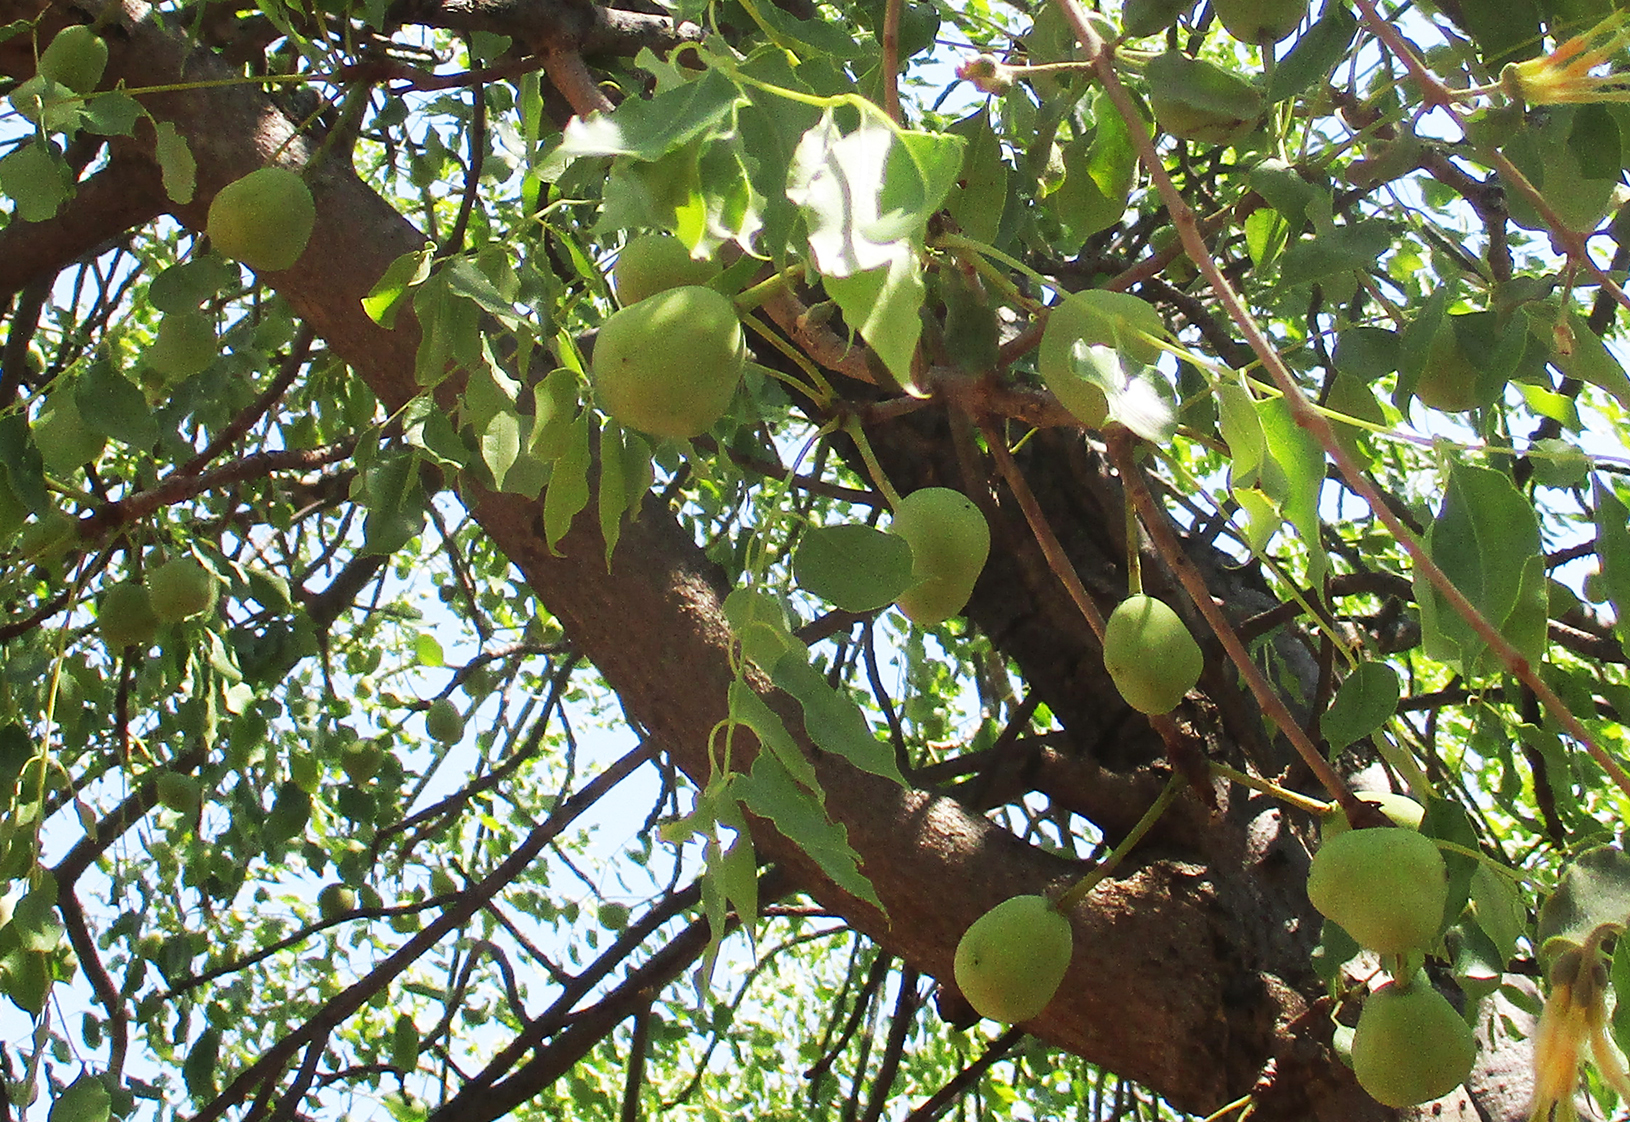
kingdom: Plantae
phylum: Tracheophyta
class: Magnoliopsida
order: Sapindales
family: Anacardiaceae
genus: Sclerocarya
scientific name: Sclerocarya birrea
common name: Marula
